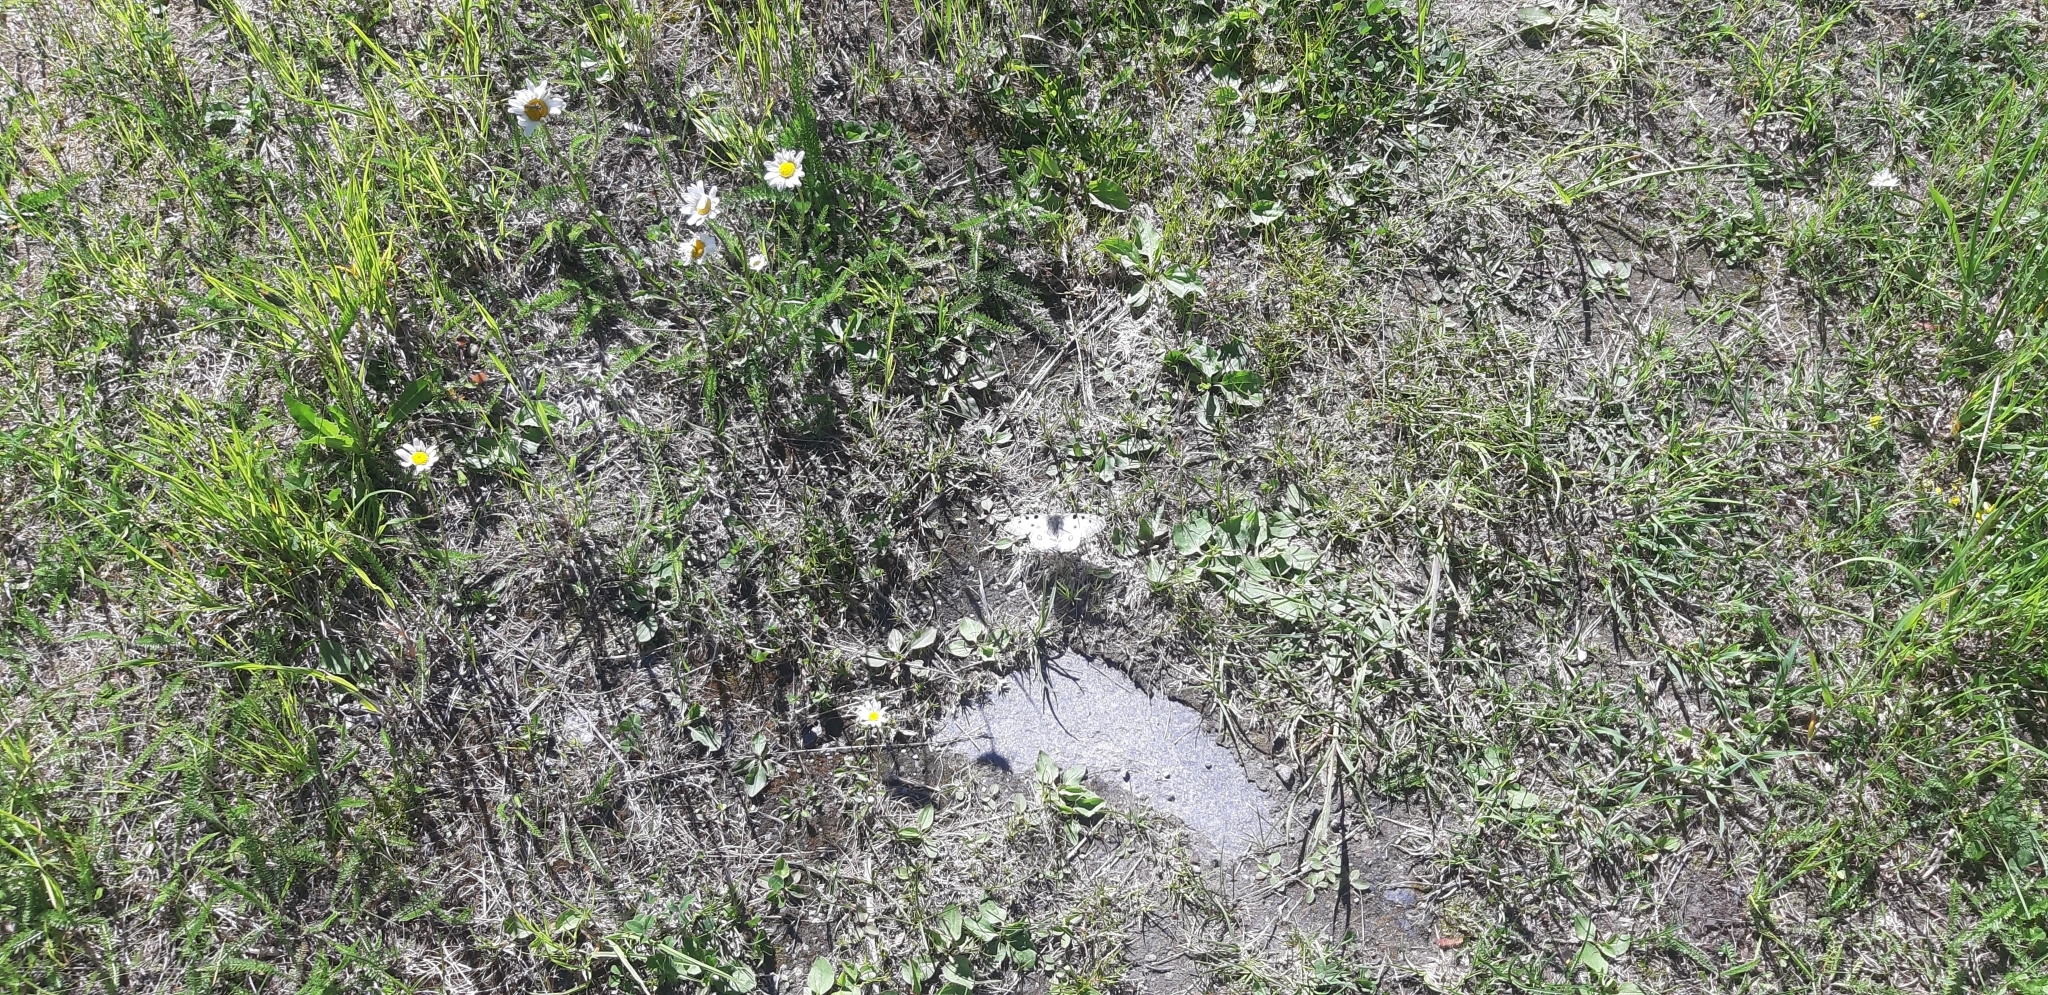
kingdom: Animalia
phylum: Arthropoda
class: Insecta
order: Lepidoptera
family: Papilionidae
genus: Parnassius
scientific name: Parnassius apollo
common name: Apollo
